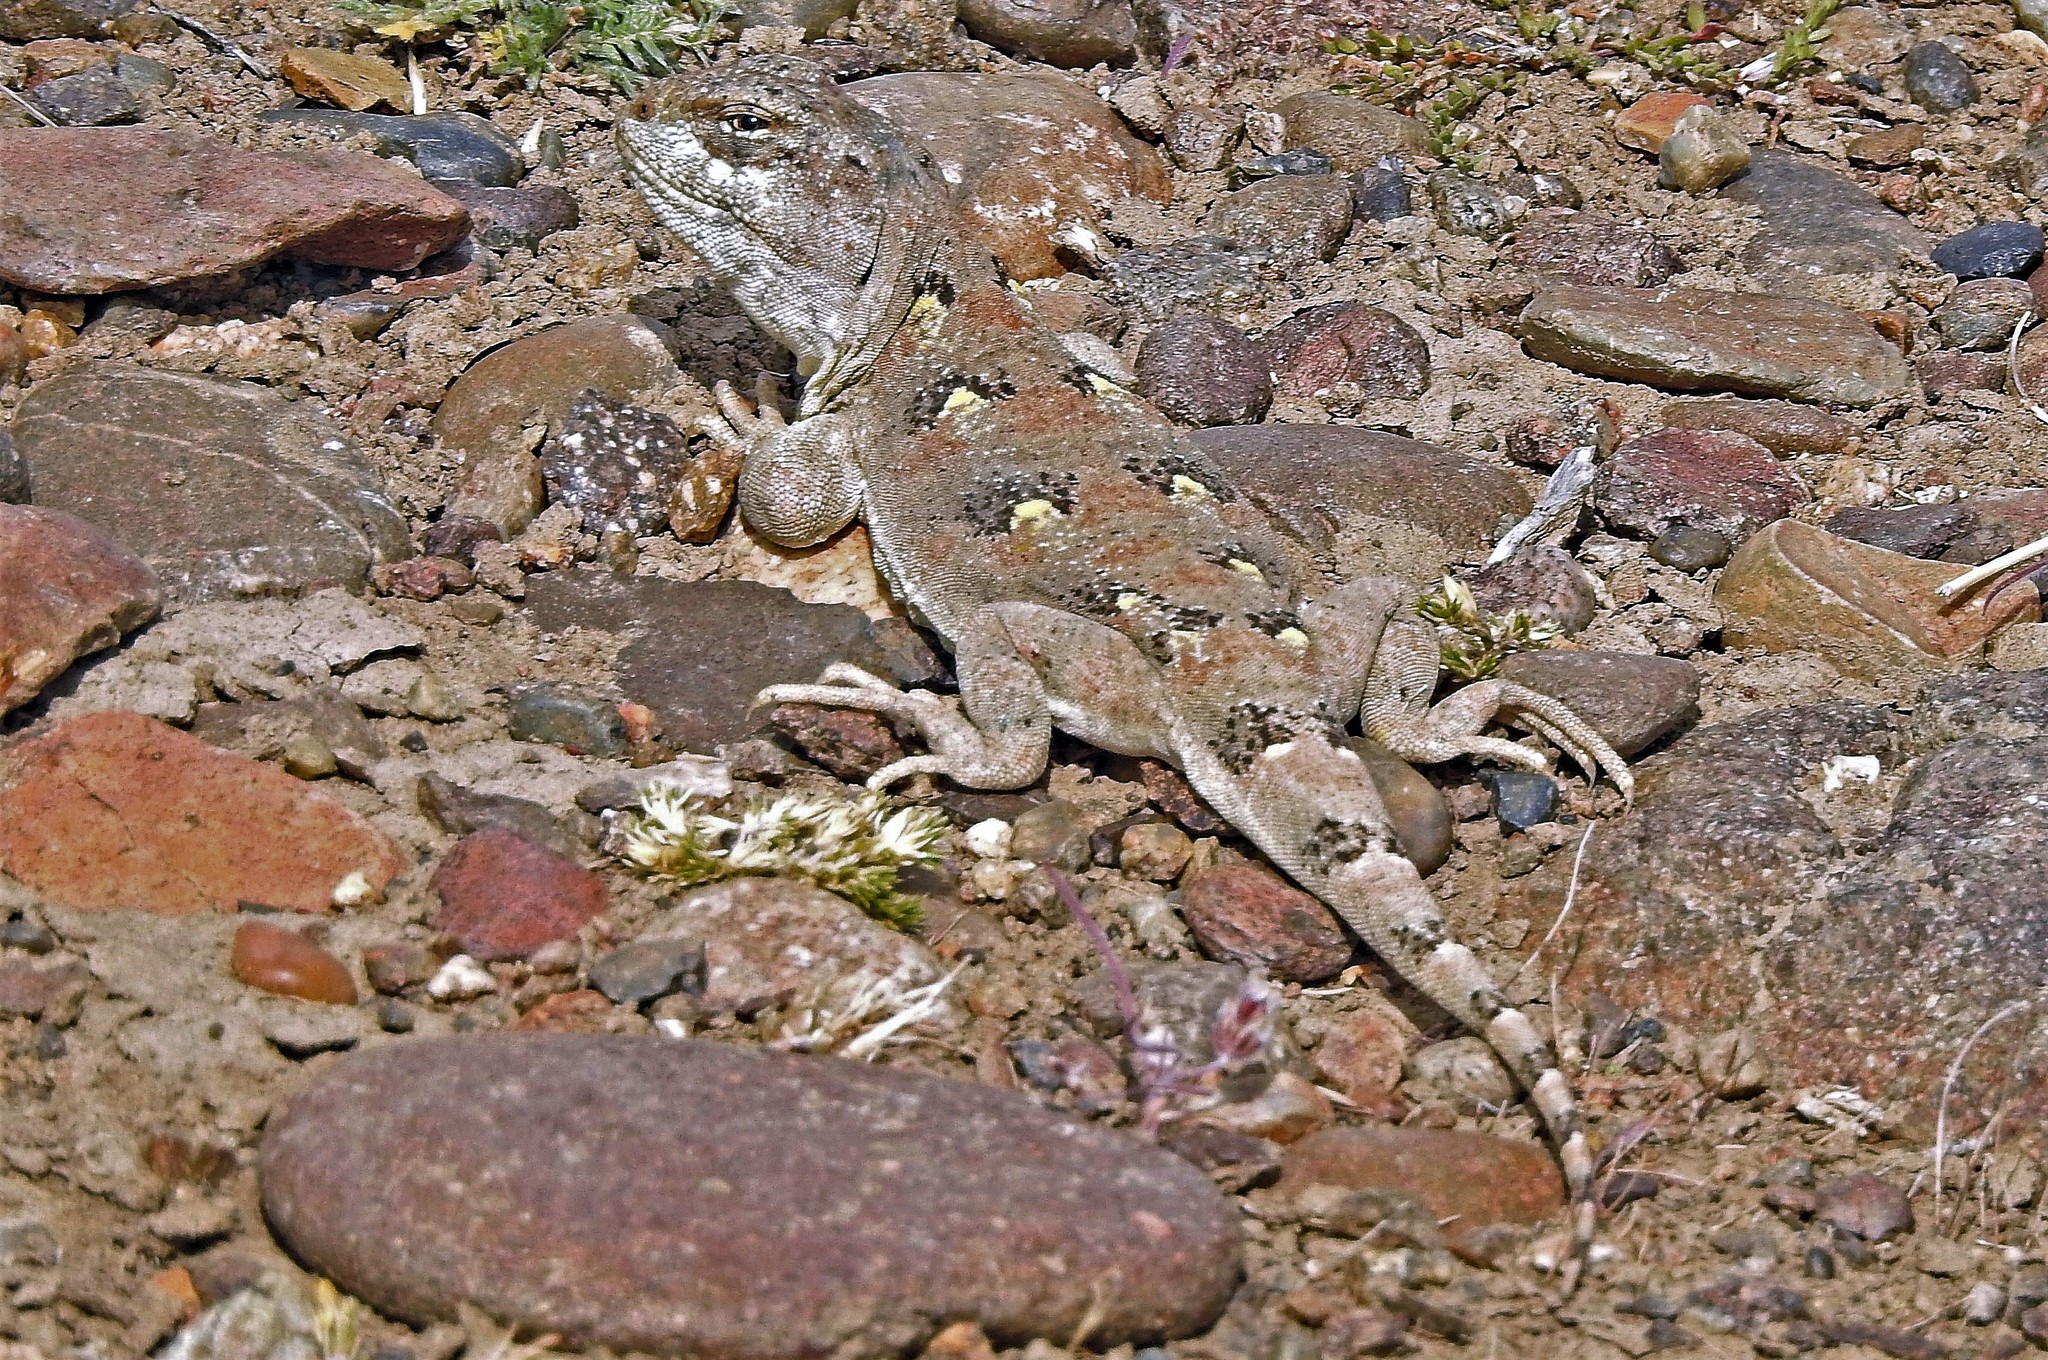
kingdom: Animalia
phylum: Chordata
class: Squamata
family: Leiosauridae
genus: Diplolaemus
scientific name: Diplolaemus bibronii
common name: Bibron's iguana
